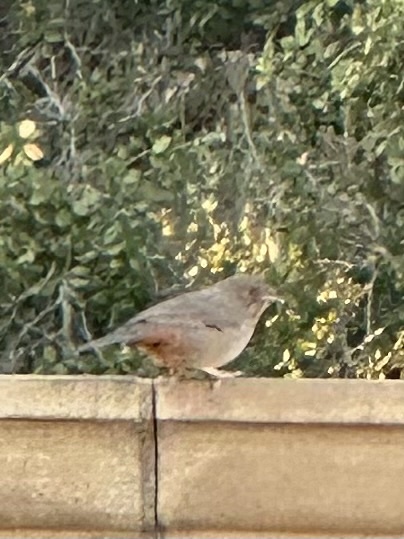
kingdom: Animalia
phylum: Chordata
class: Aves
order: Passeriformes
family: Passerellidae
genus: Melozone
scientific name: Melozone crissalis
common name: California towhee
